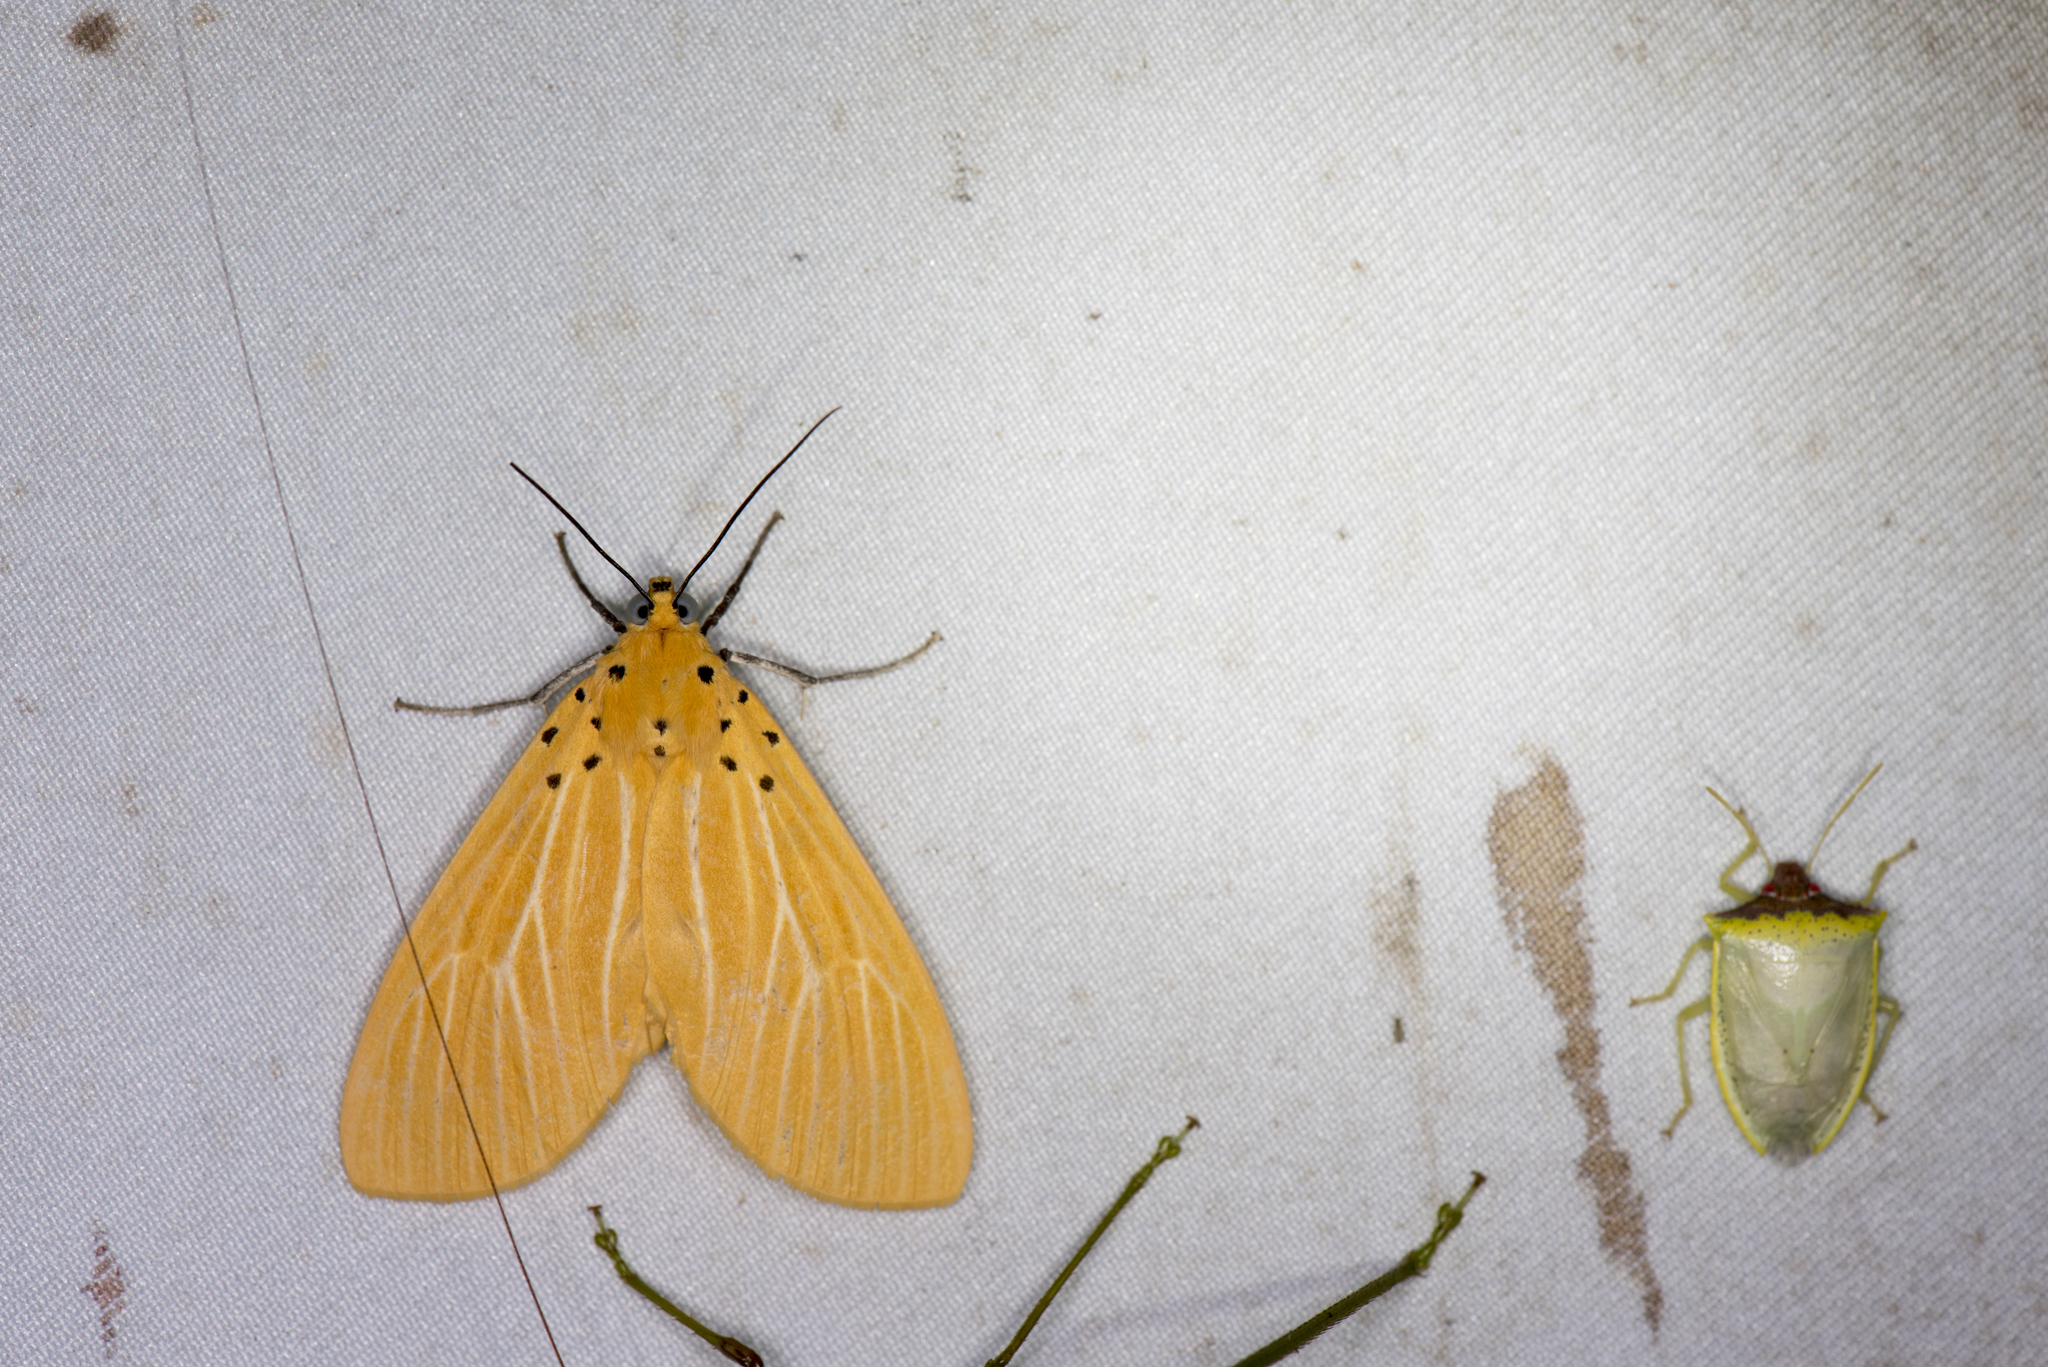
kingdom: Animalia
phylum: Arthropoda
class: Insecta
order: Lepidoptera
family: Erebidae
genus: Asota
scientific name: Asota egens
